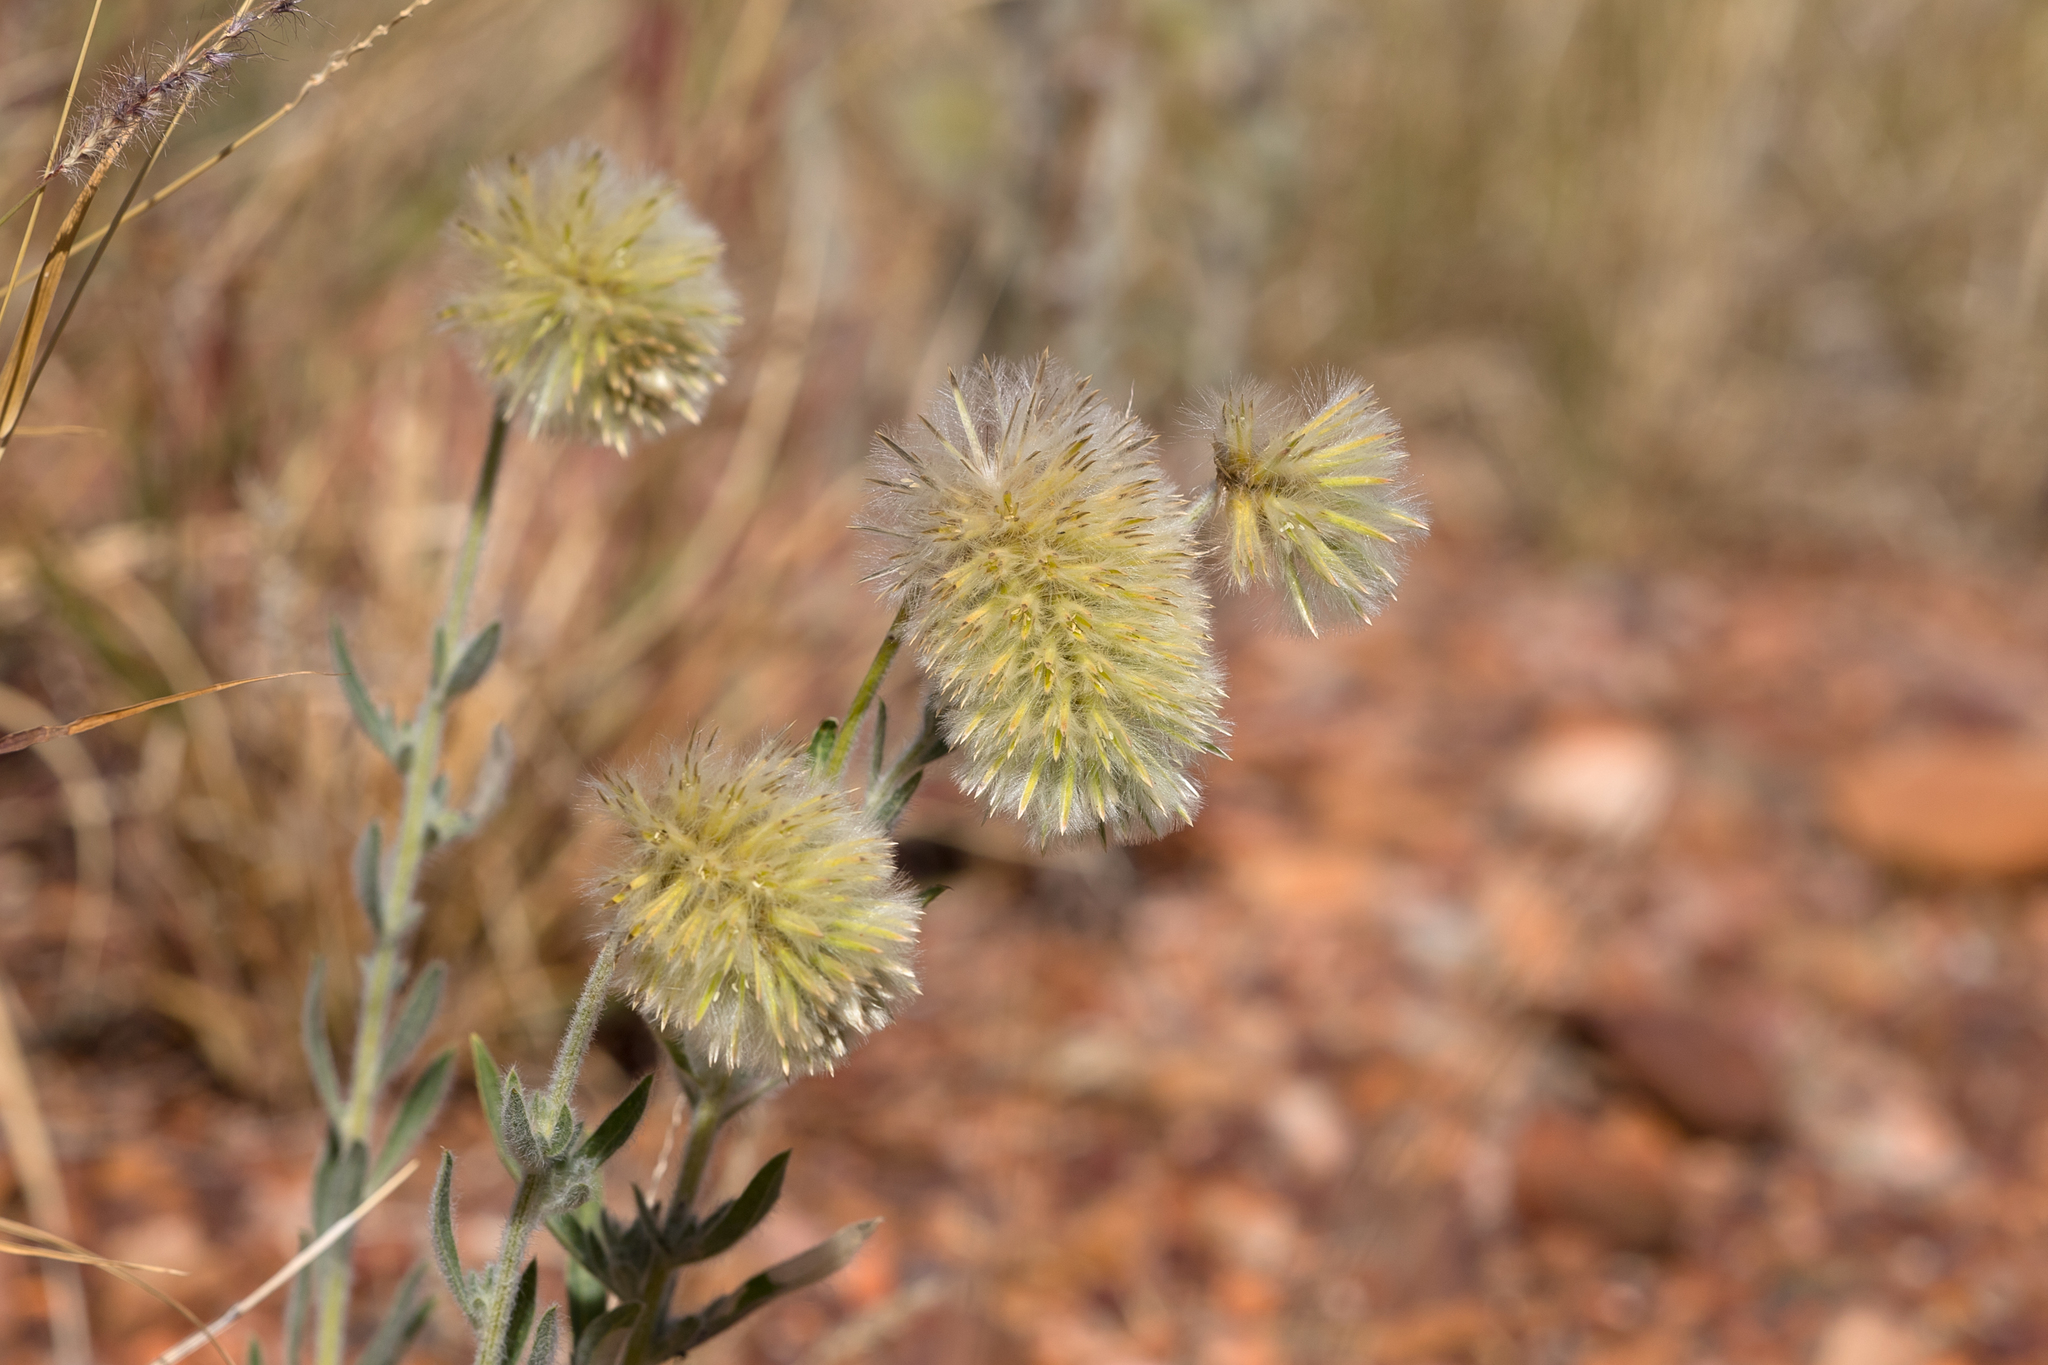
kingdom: Plantae
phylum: Tracheophyta
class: Magnoliopsida
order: Caryophyllales
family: Amaranthaceae
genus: Ptilotus
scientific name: Ptilotus clementii
